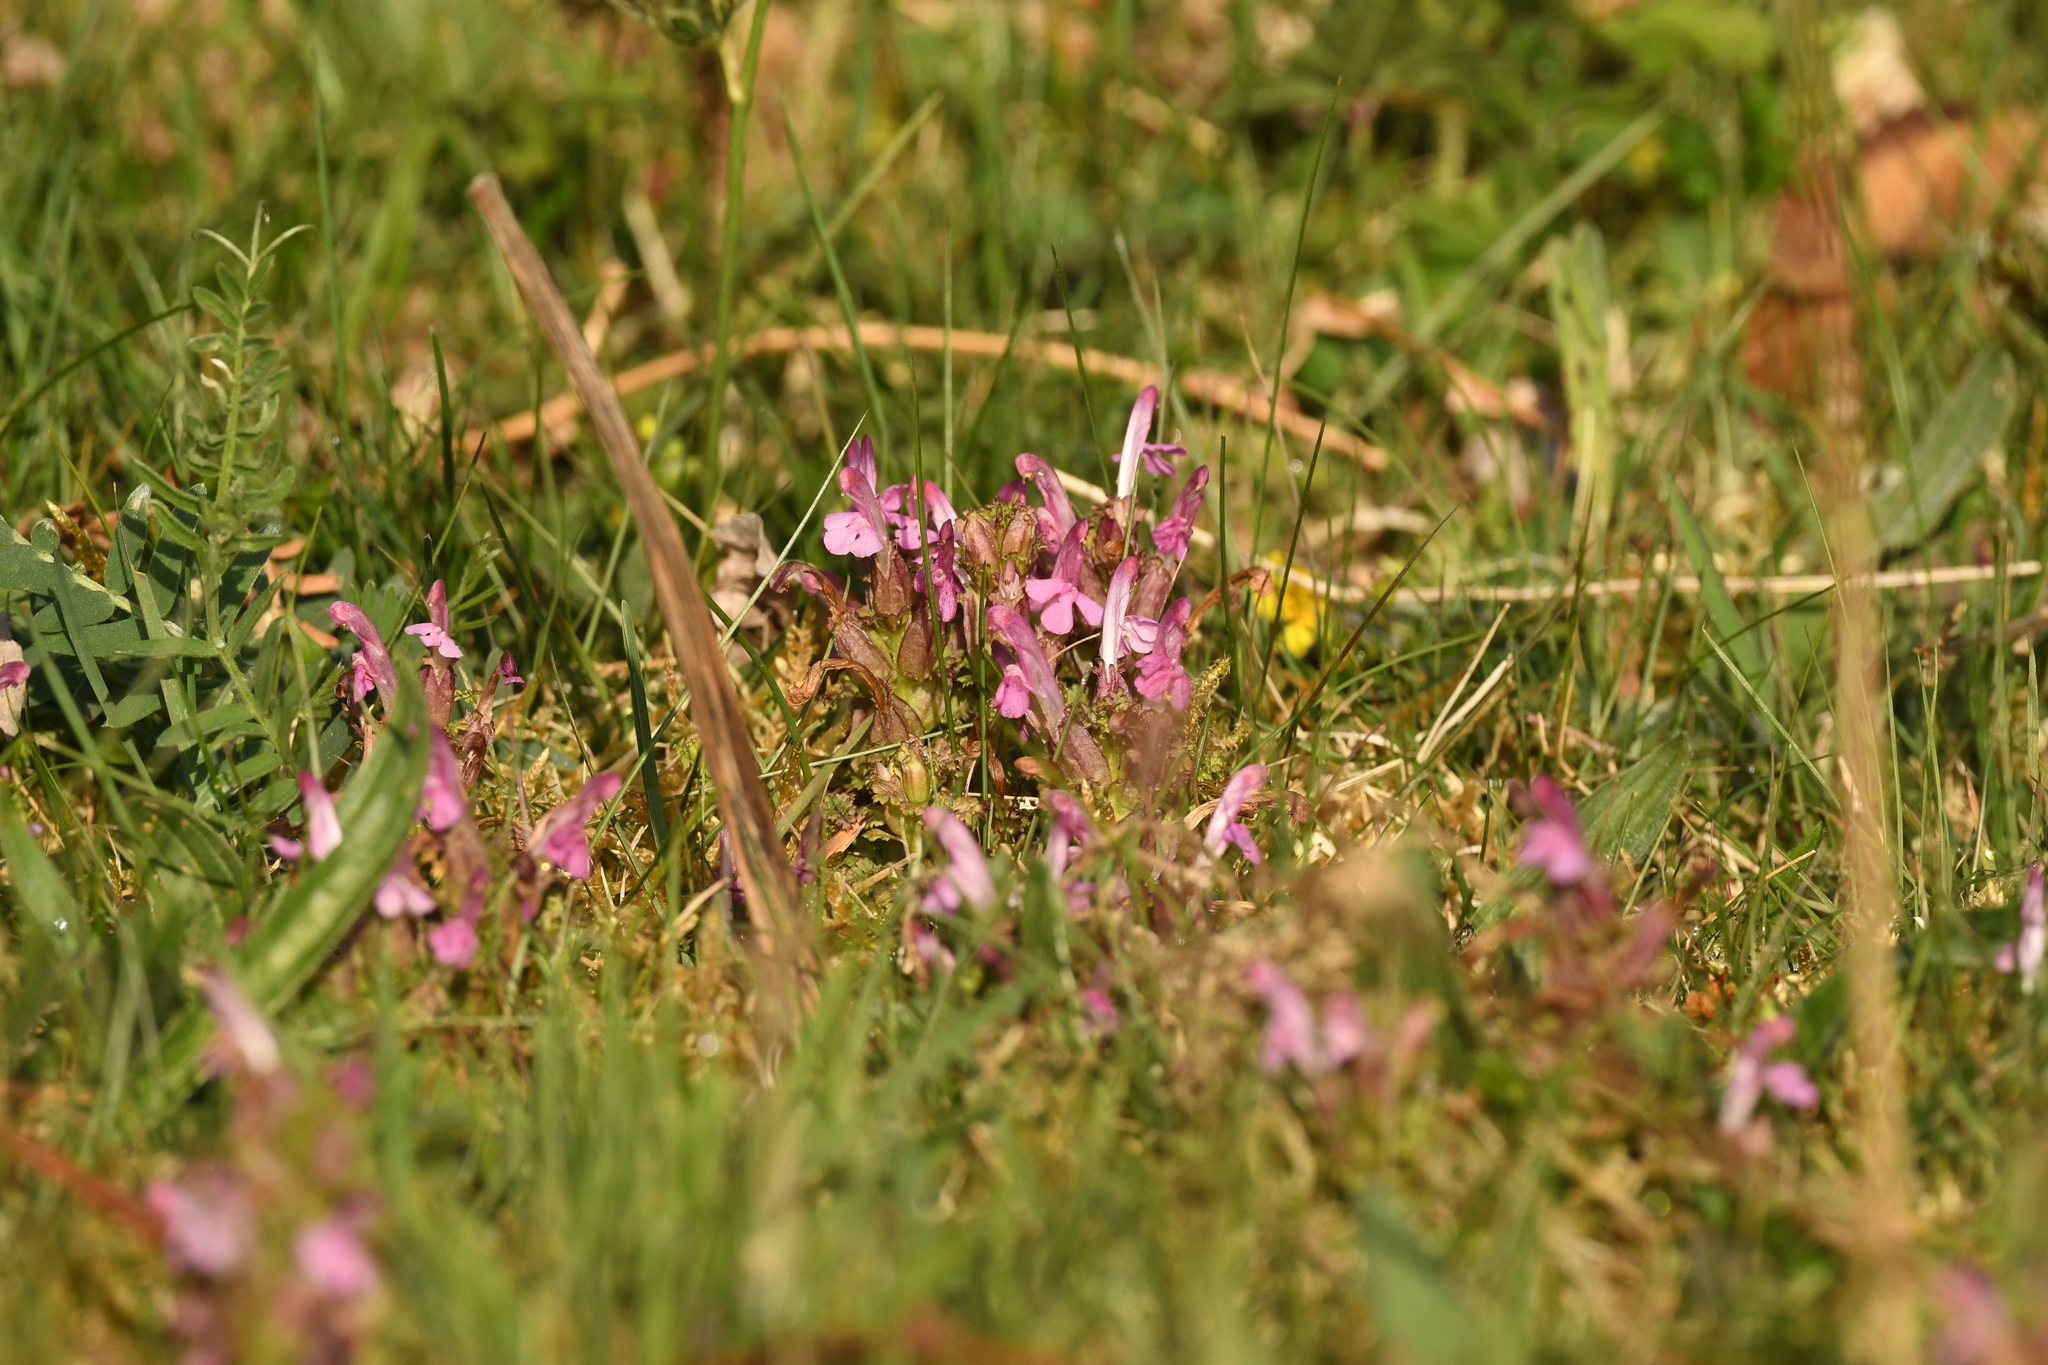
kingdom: Plantae
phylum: Tracheophyta
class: Magnoliopsida
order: Lamiales
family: Orobanchaceae
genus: Pedicularis
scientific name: Pedicularis sylvatica
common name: Lousewort
